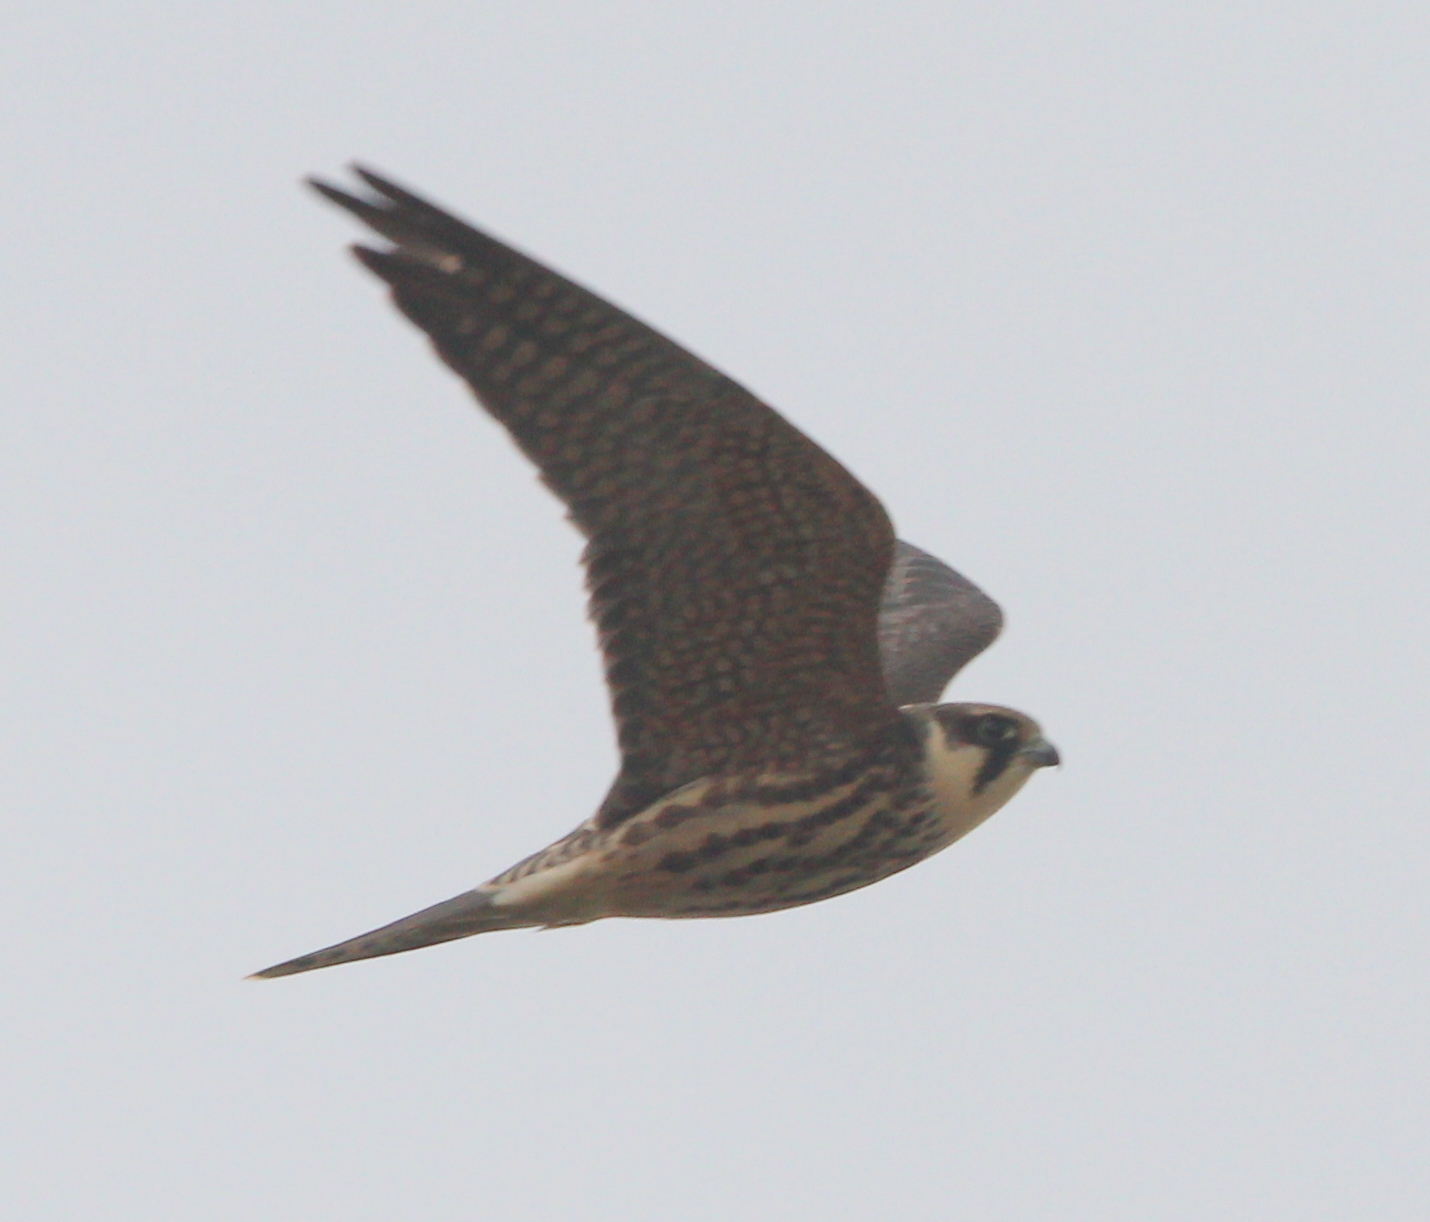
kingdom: Animalia
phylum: Chordata
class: Aves
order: Falconiformes
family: Falconidae
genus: Falco
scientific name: Falco subbuteo
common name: Eurasian hobby
